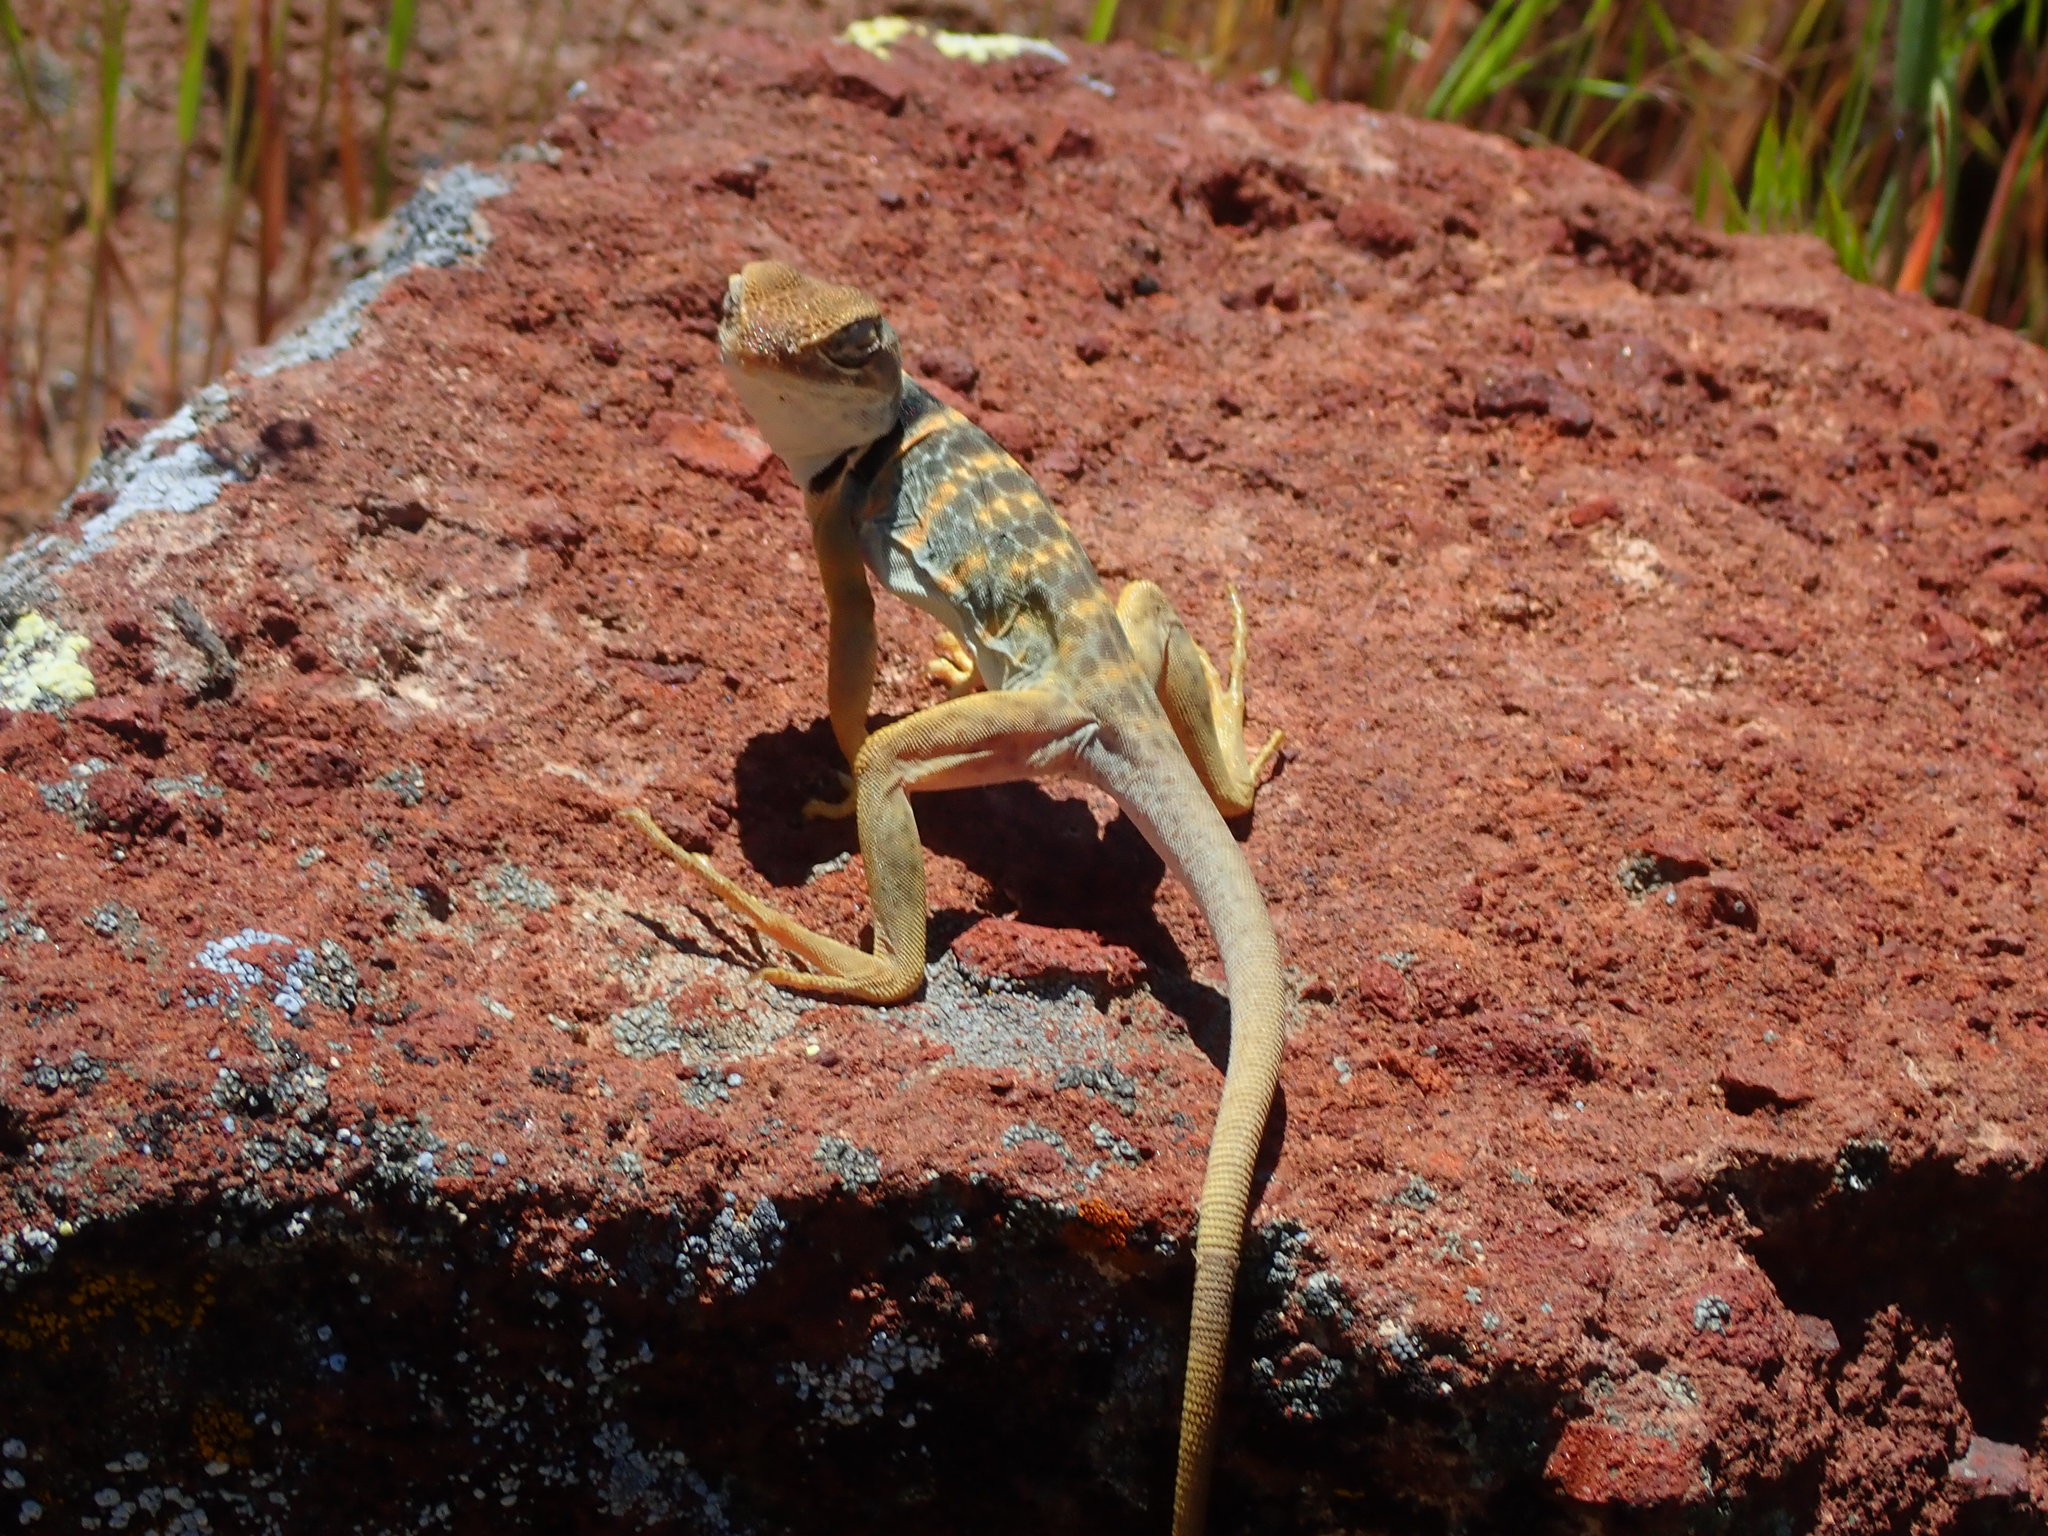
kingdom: Animalia
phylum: Chordata
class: Squamata
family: Crotaphytidae
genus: Crotaphytus
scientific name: Crotaphytus bicinctores
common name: Mojave black-collared lizard
